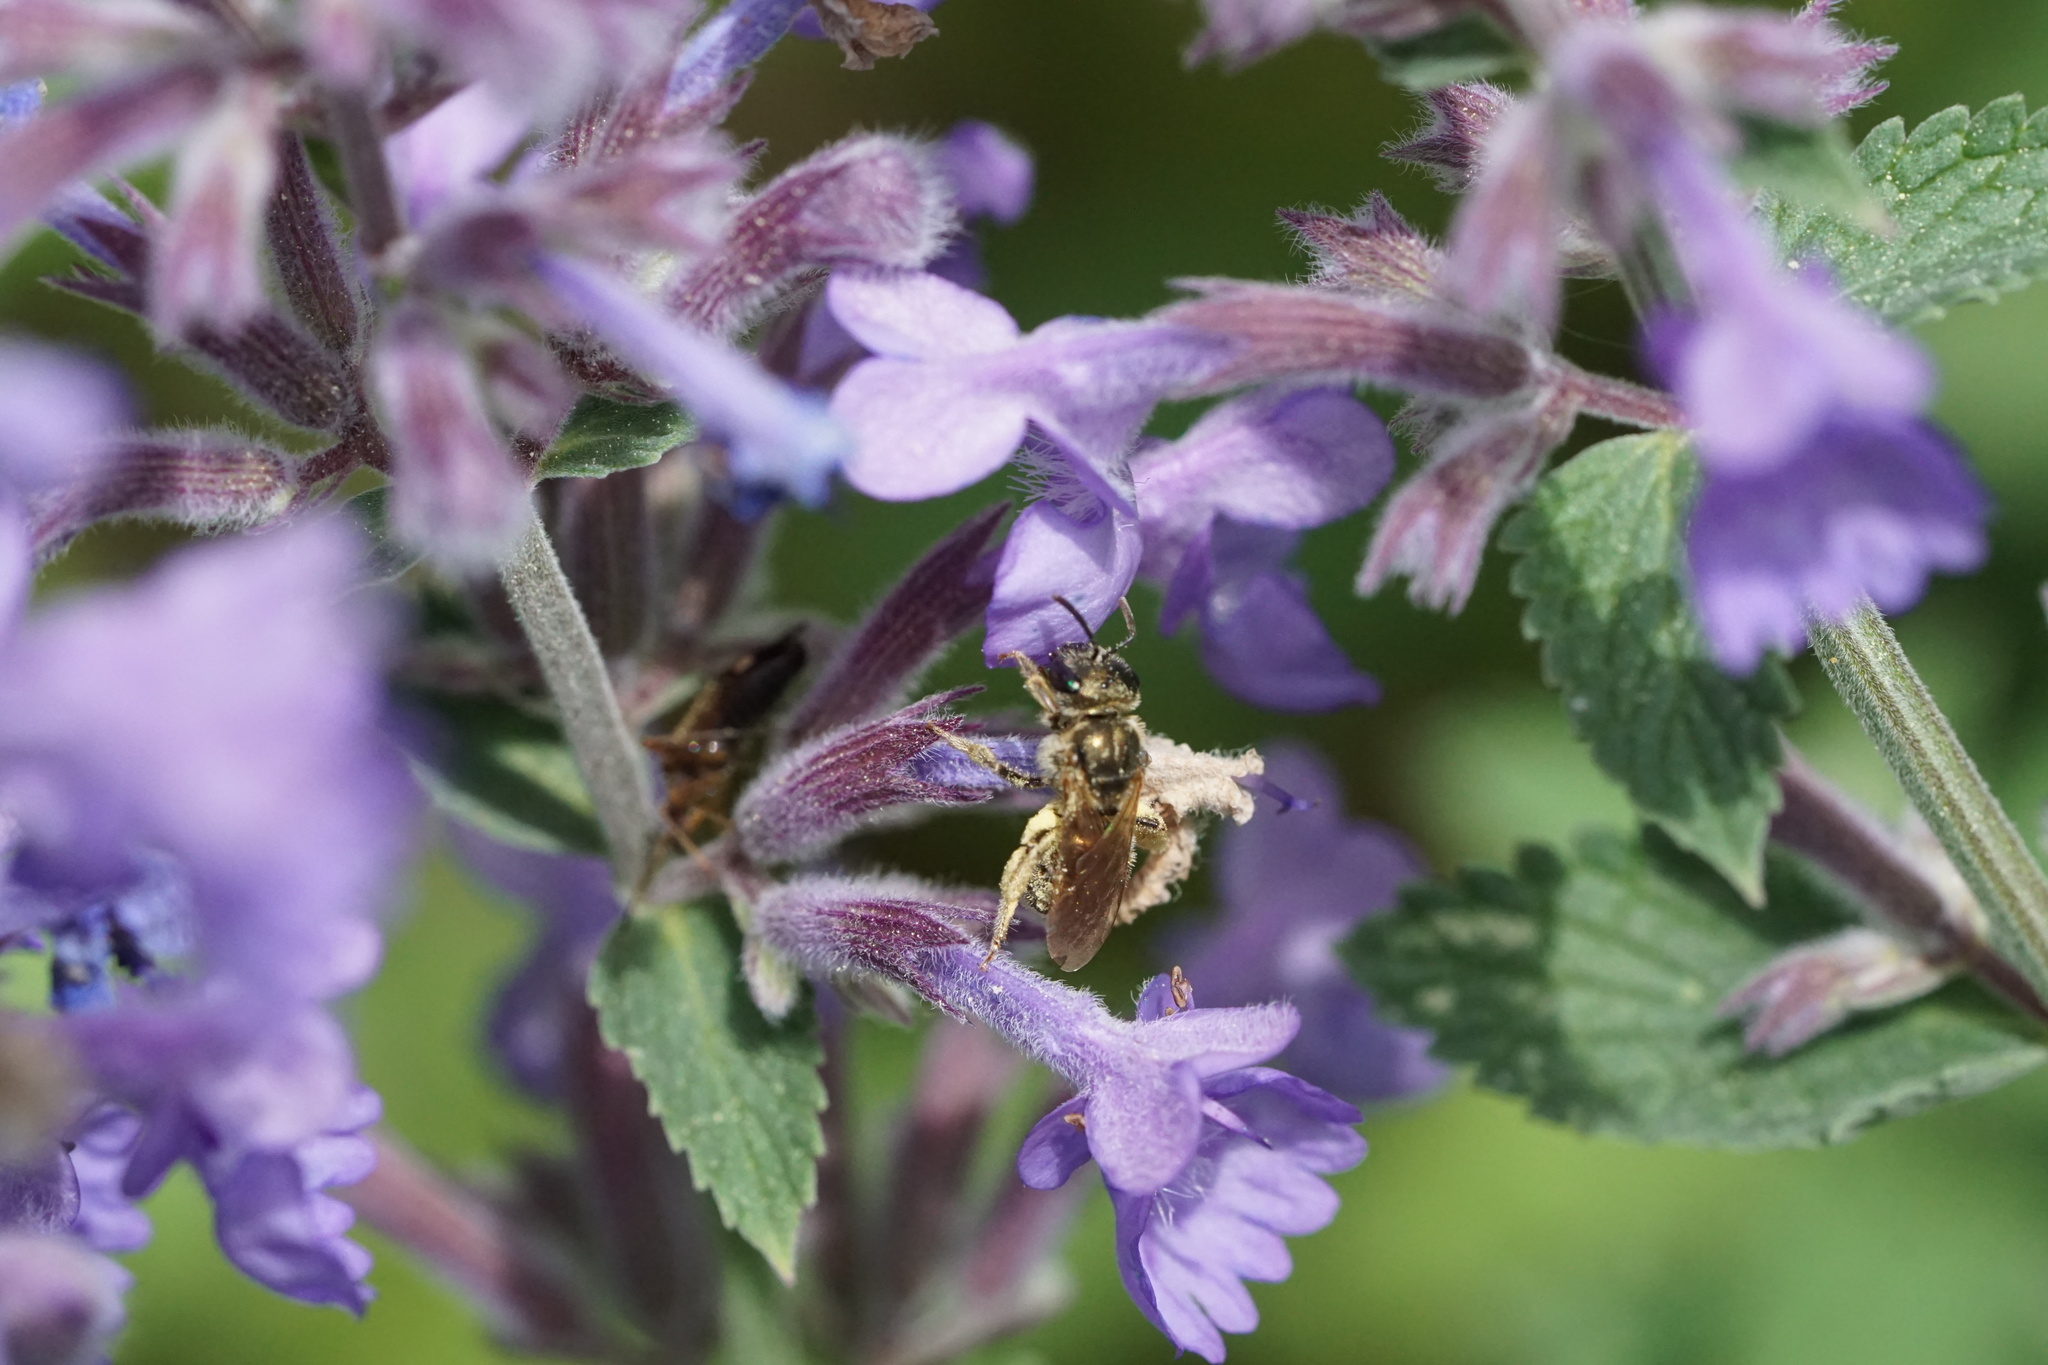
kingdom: Animalia
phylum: Arthropoda
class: Insecta
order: Hymenoptera
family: Halictidae
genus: Halictus
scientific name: Halictus confusus
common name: Southern bronze furrow bee
